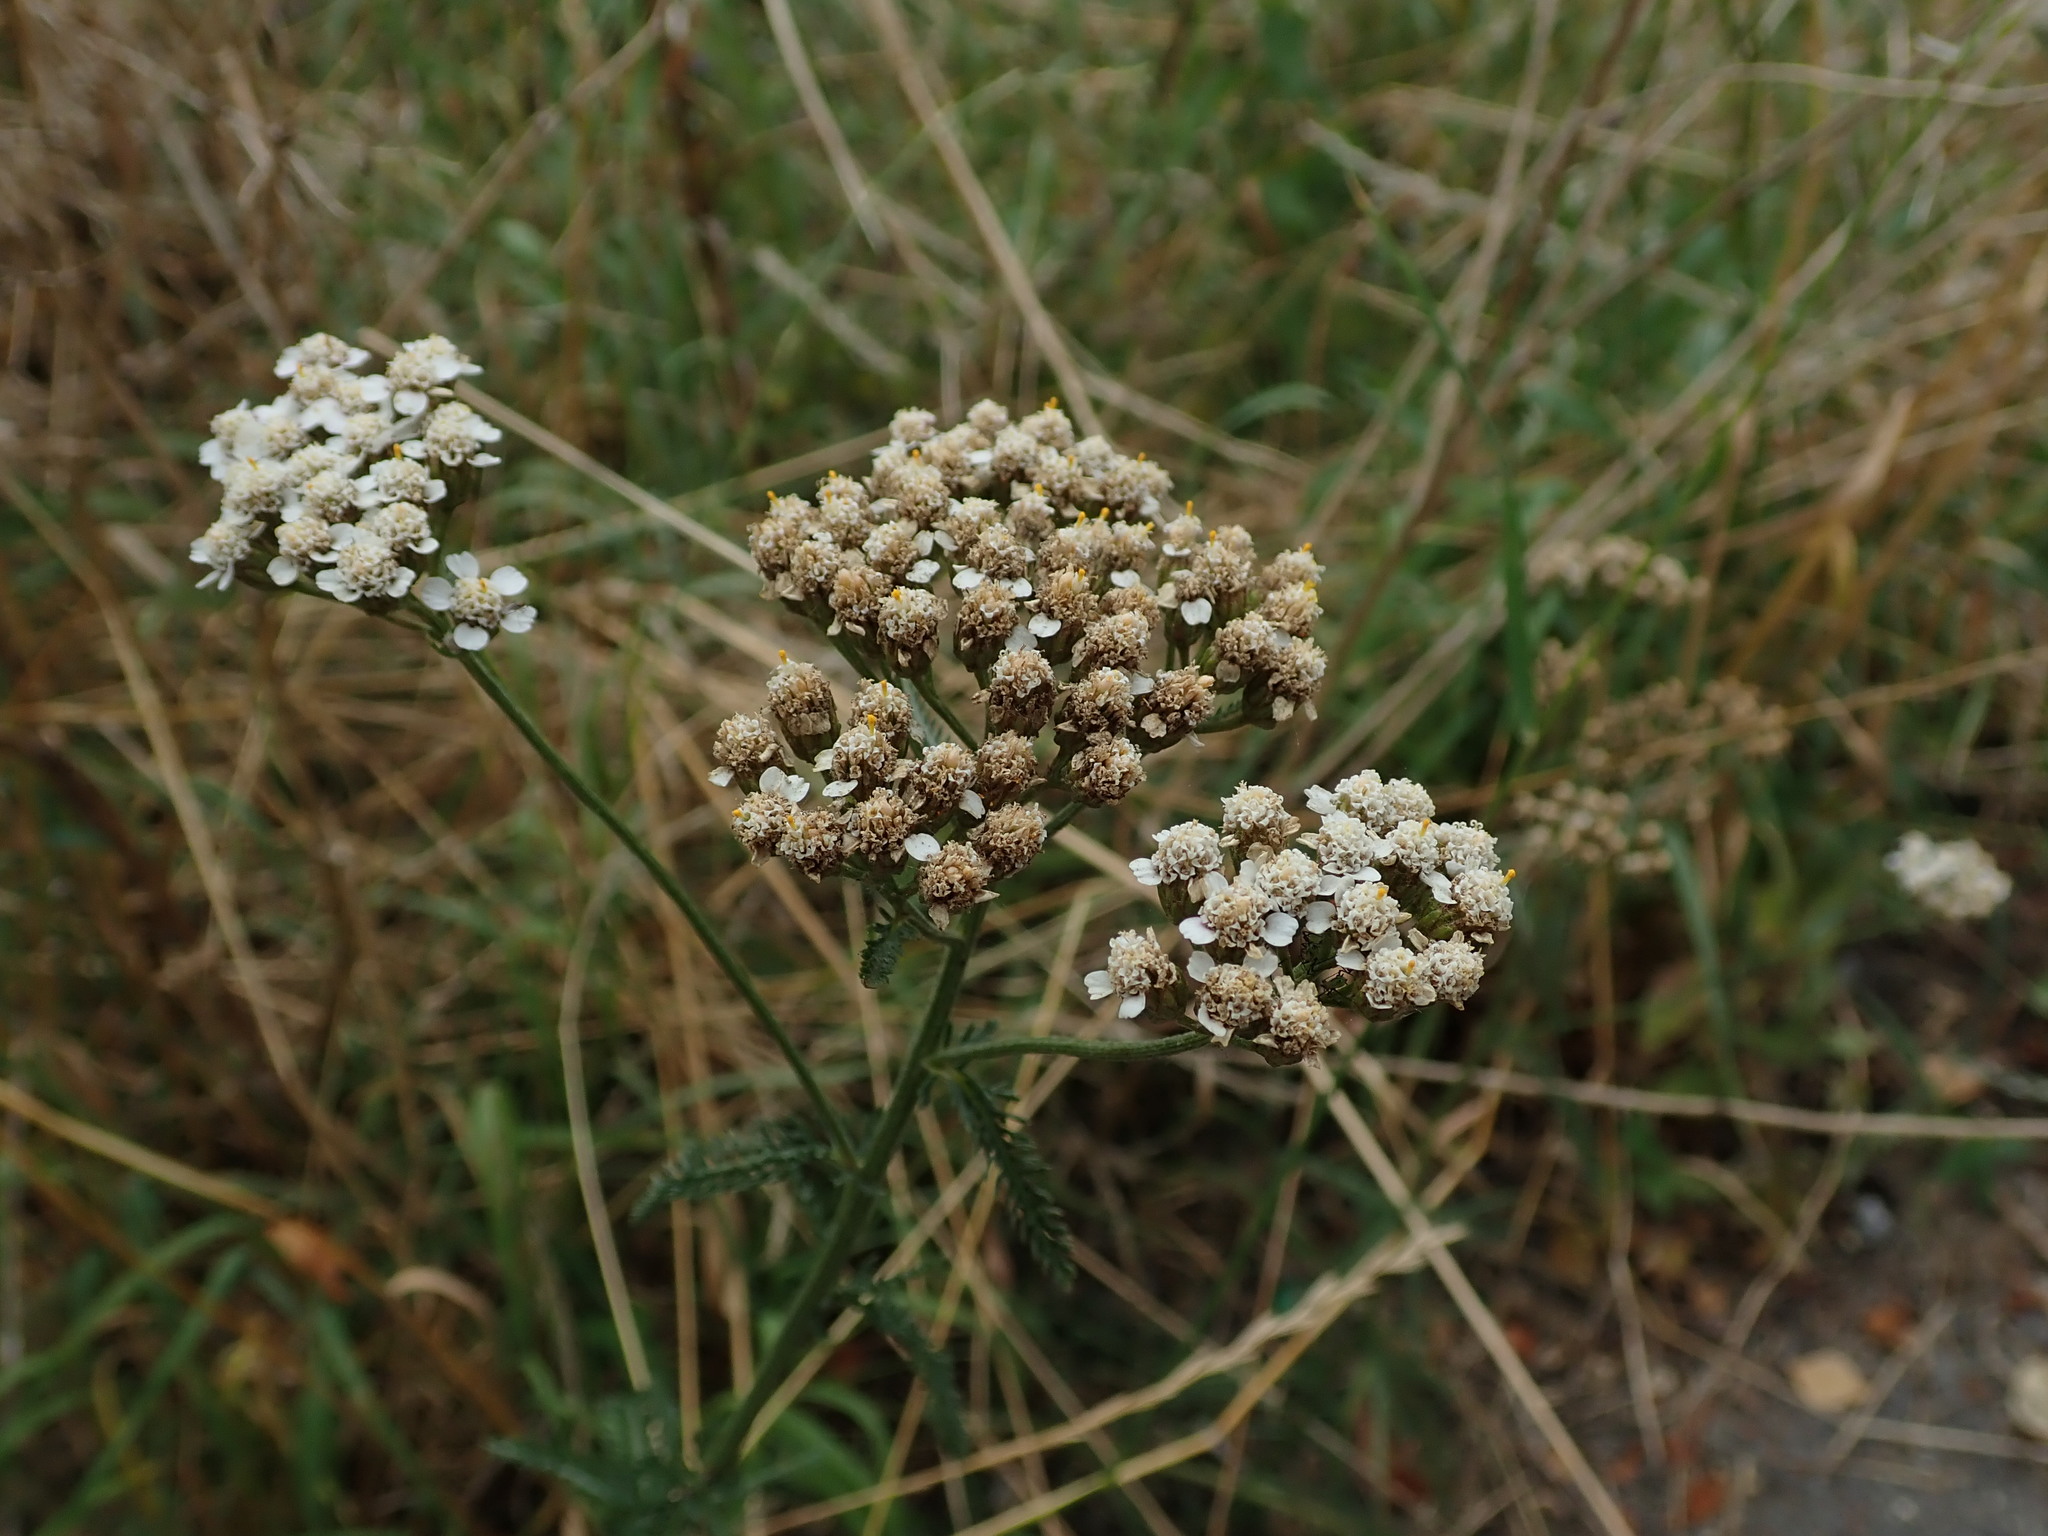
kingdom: Plantae
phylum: Tracheophyta
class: Magnoliopsida
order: Asterales
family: Asteraceae
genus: Achillea
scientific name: Achillea millefolium
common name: Yarrow
